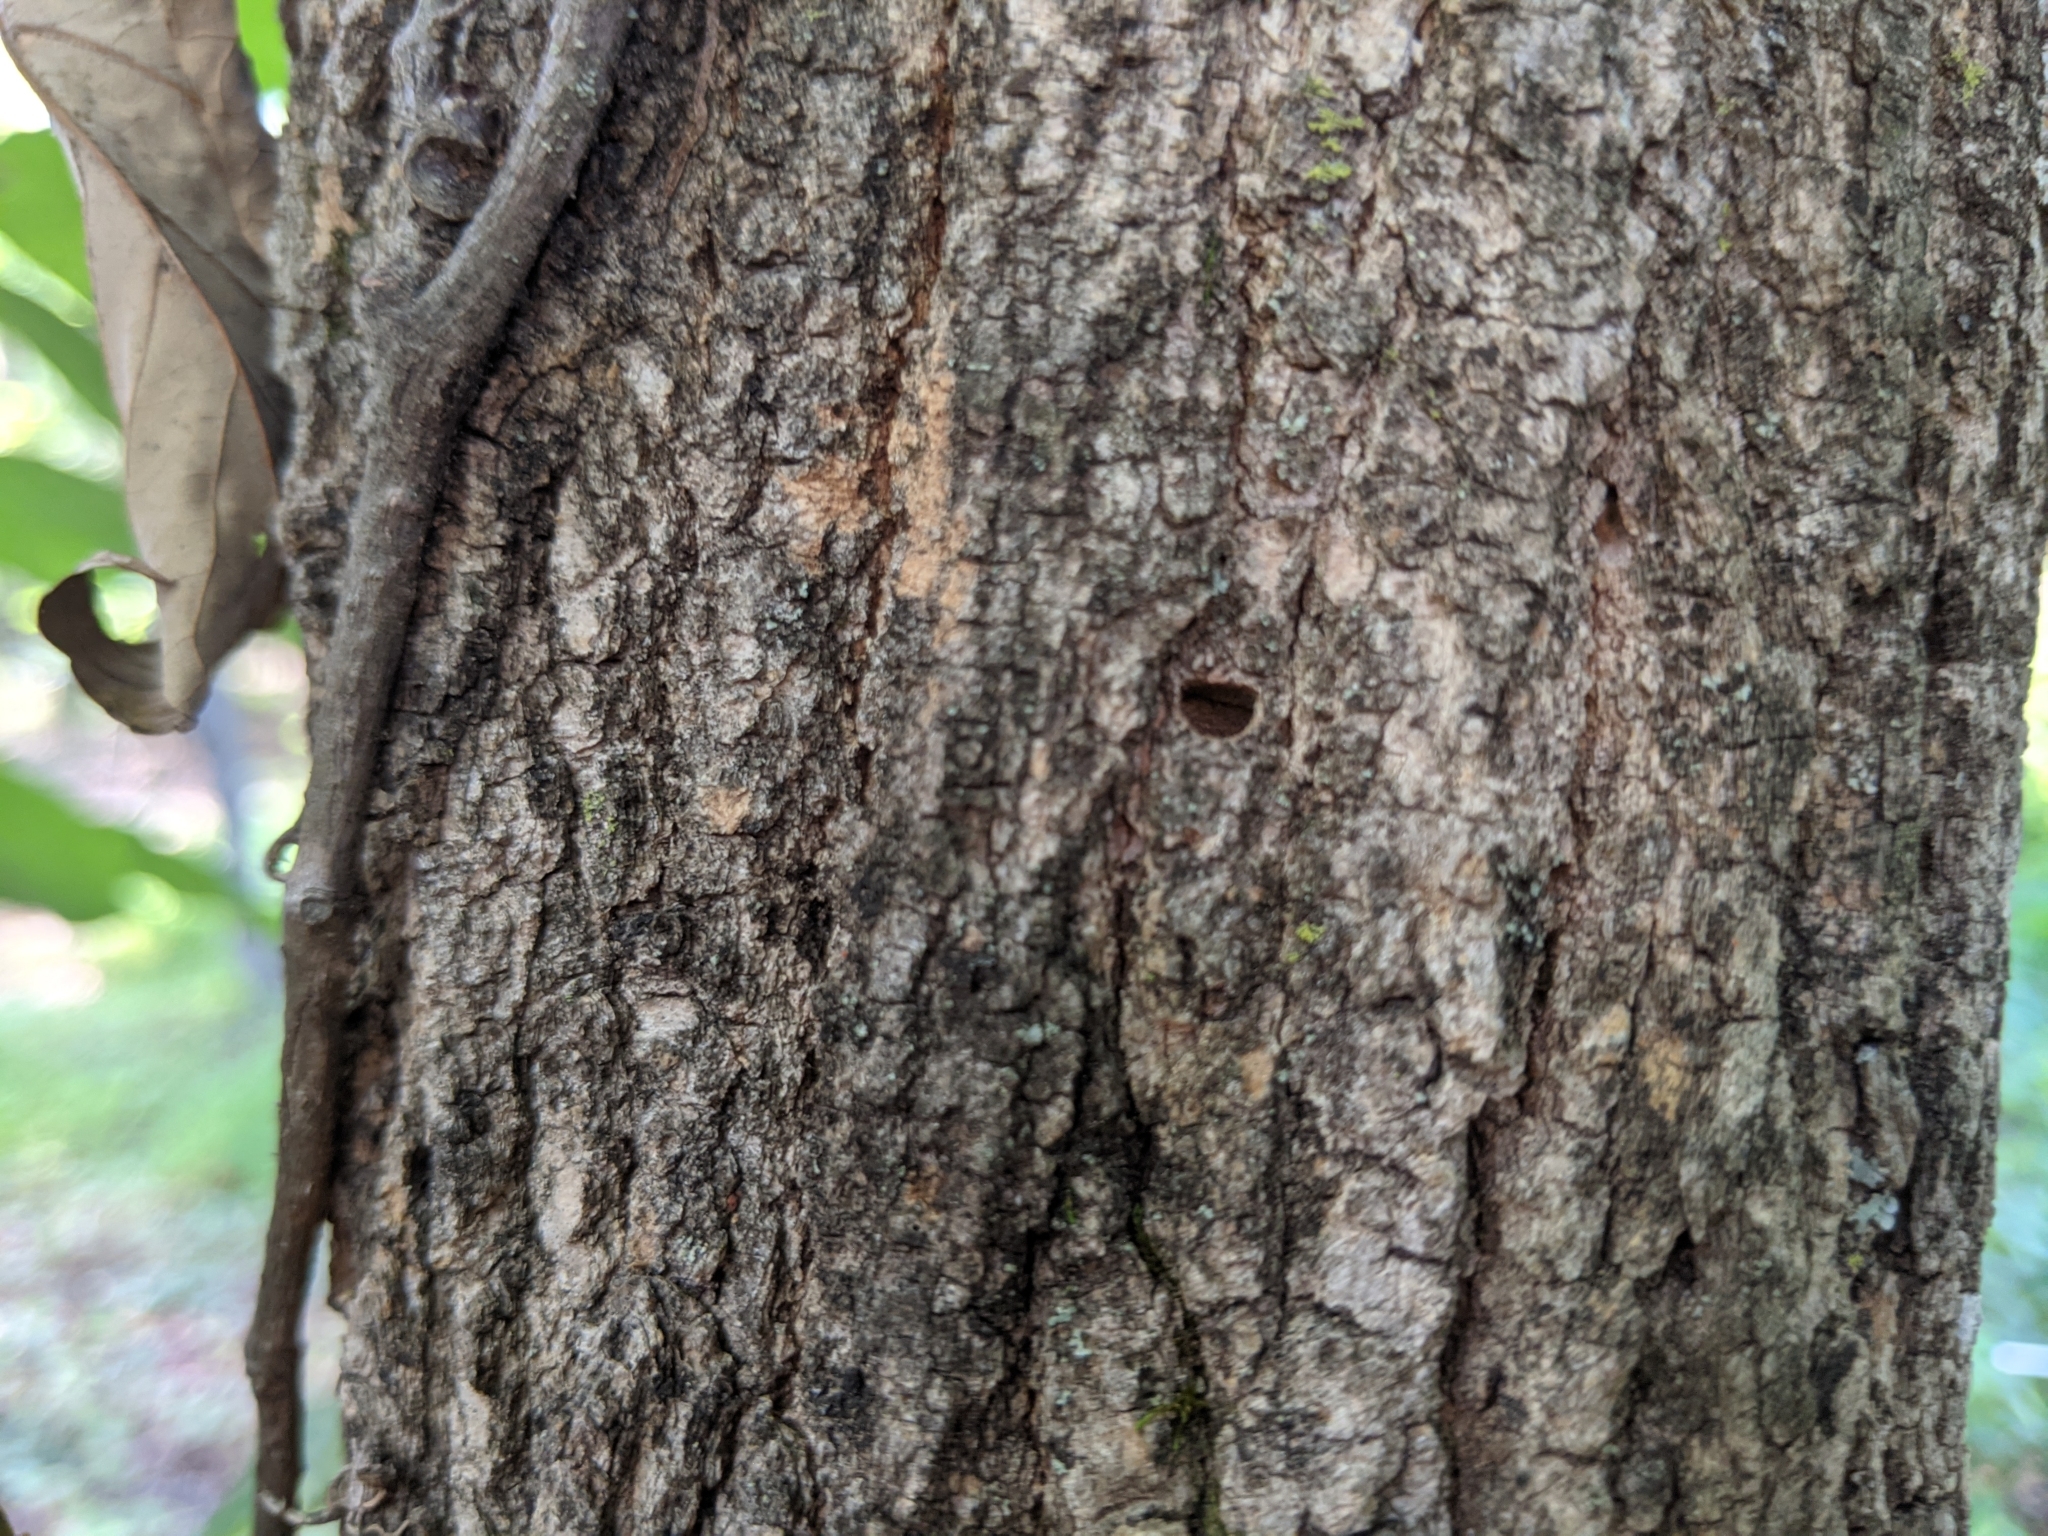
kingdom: Animalia
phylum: Arthropoda
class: Insecta
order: Coleoptera
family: Buprestidae
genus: Agrilus
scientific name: Agrilus planipennis
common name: Emerald ash borer
